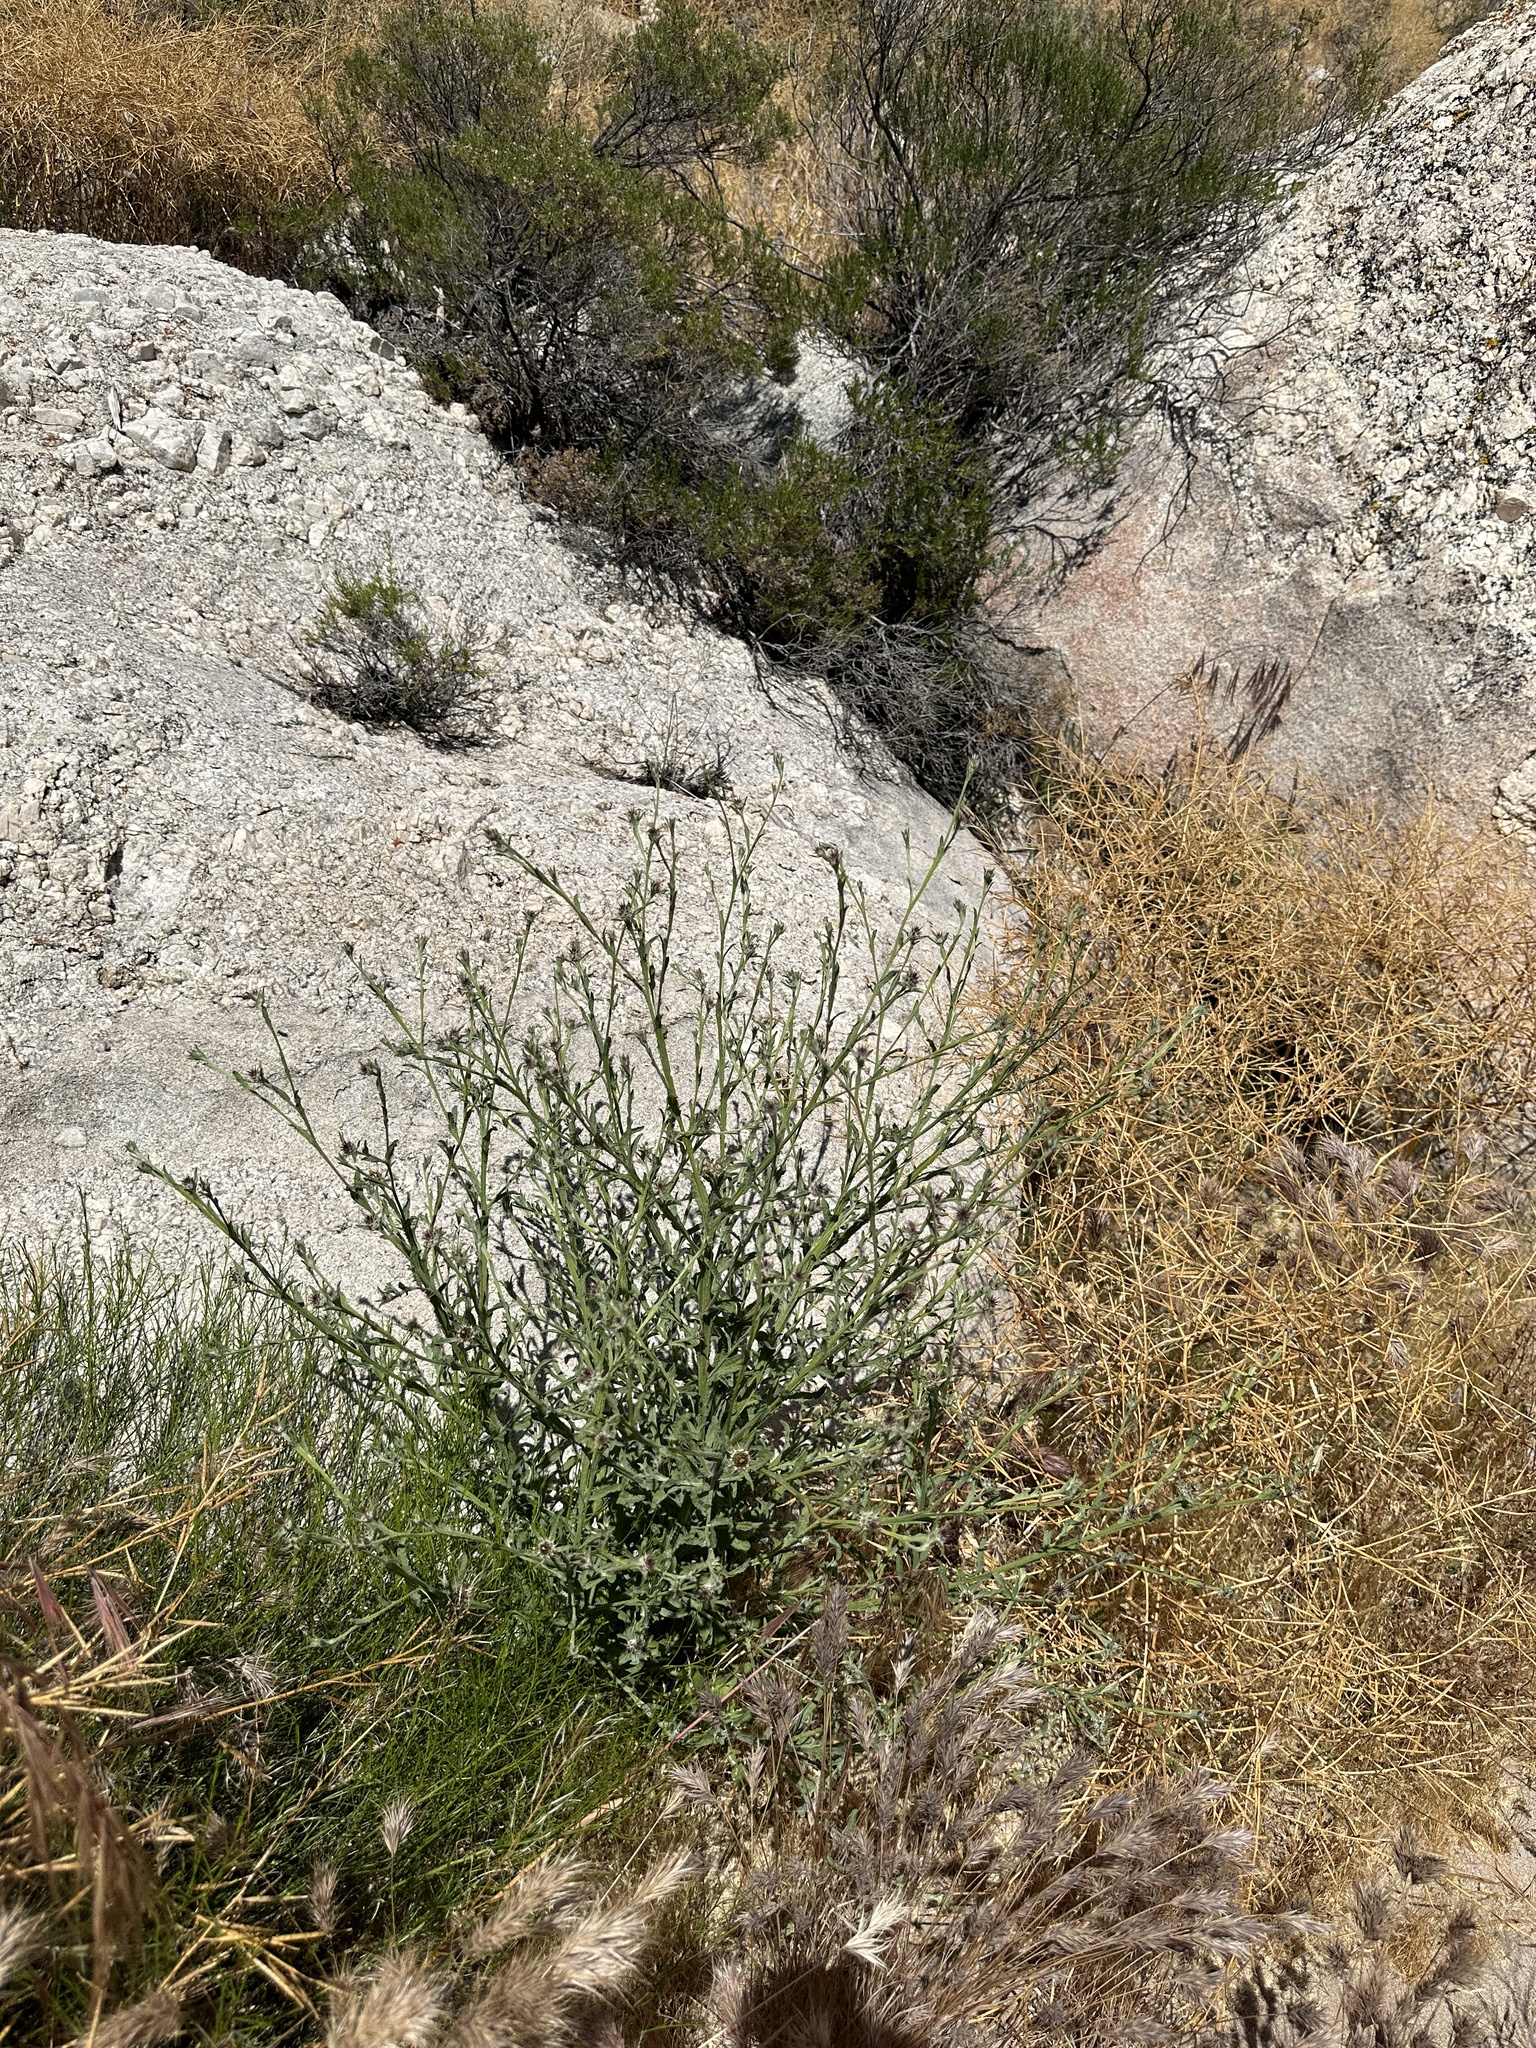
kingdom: Plantae
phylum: Tracheophyta
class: Magnoliopsida
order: Asterales
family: Asteraceae
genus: Centaurea
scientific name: Centaurea melitensis
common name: Maltese star-thistle
